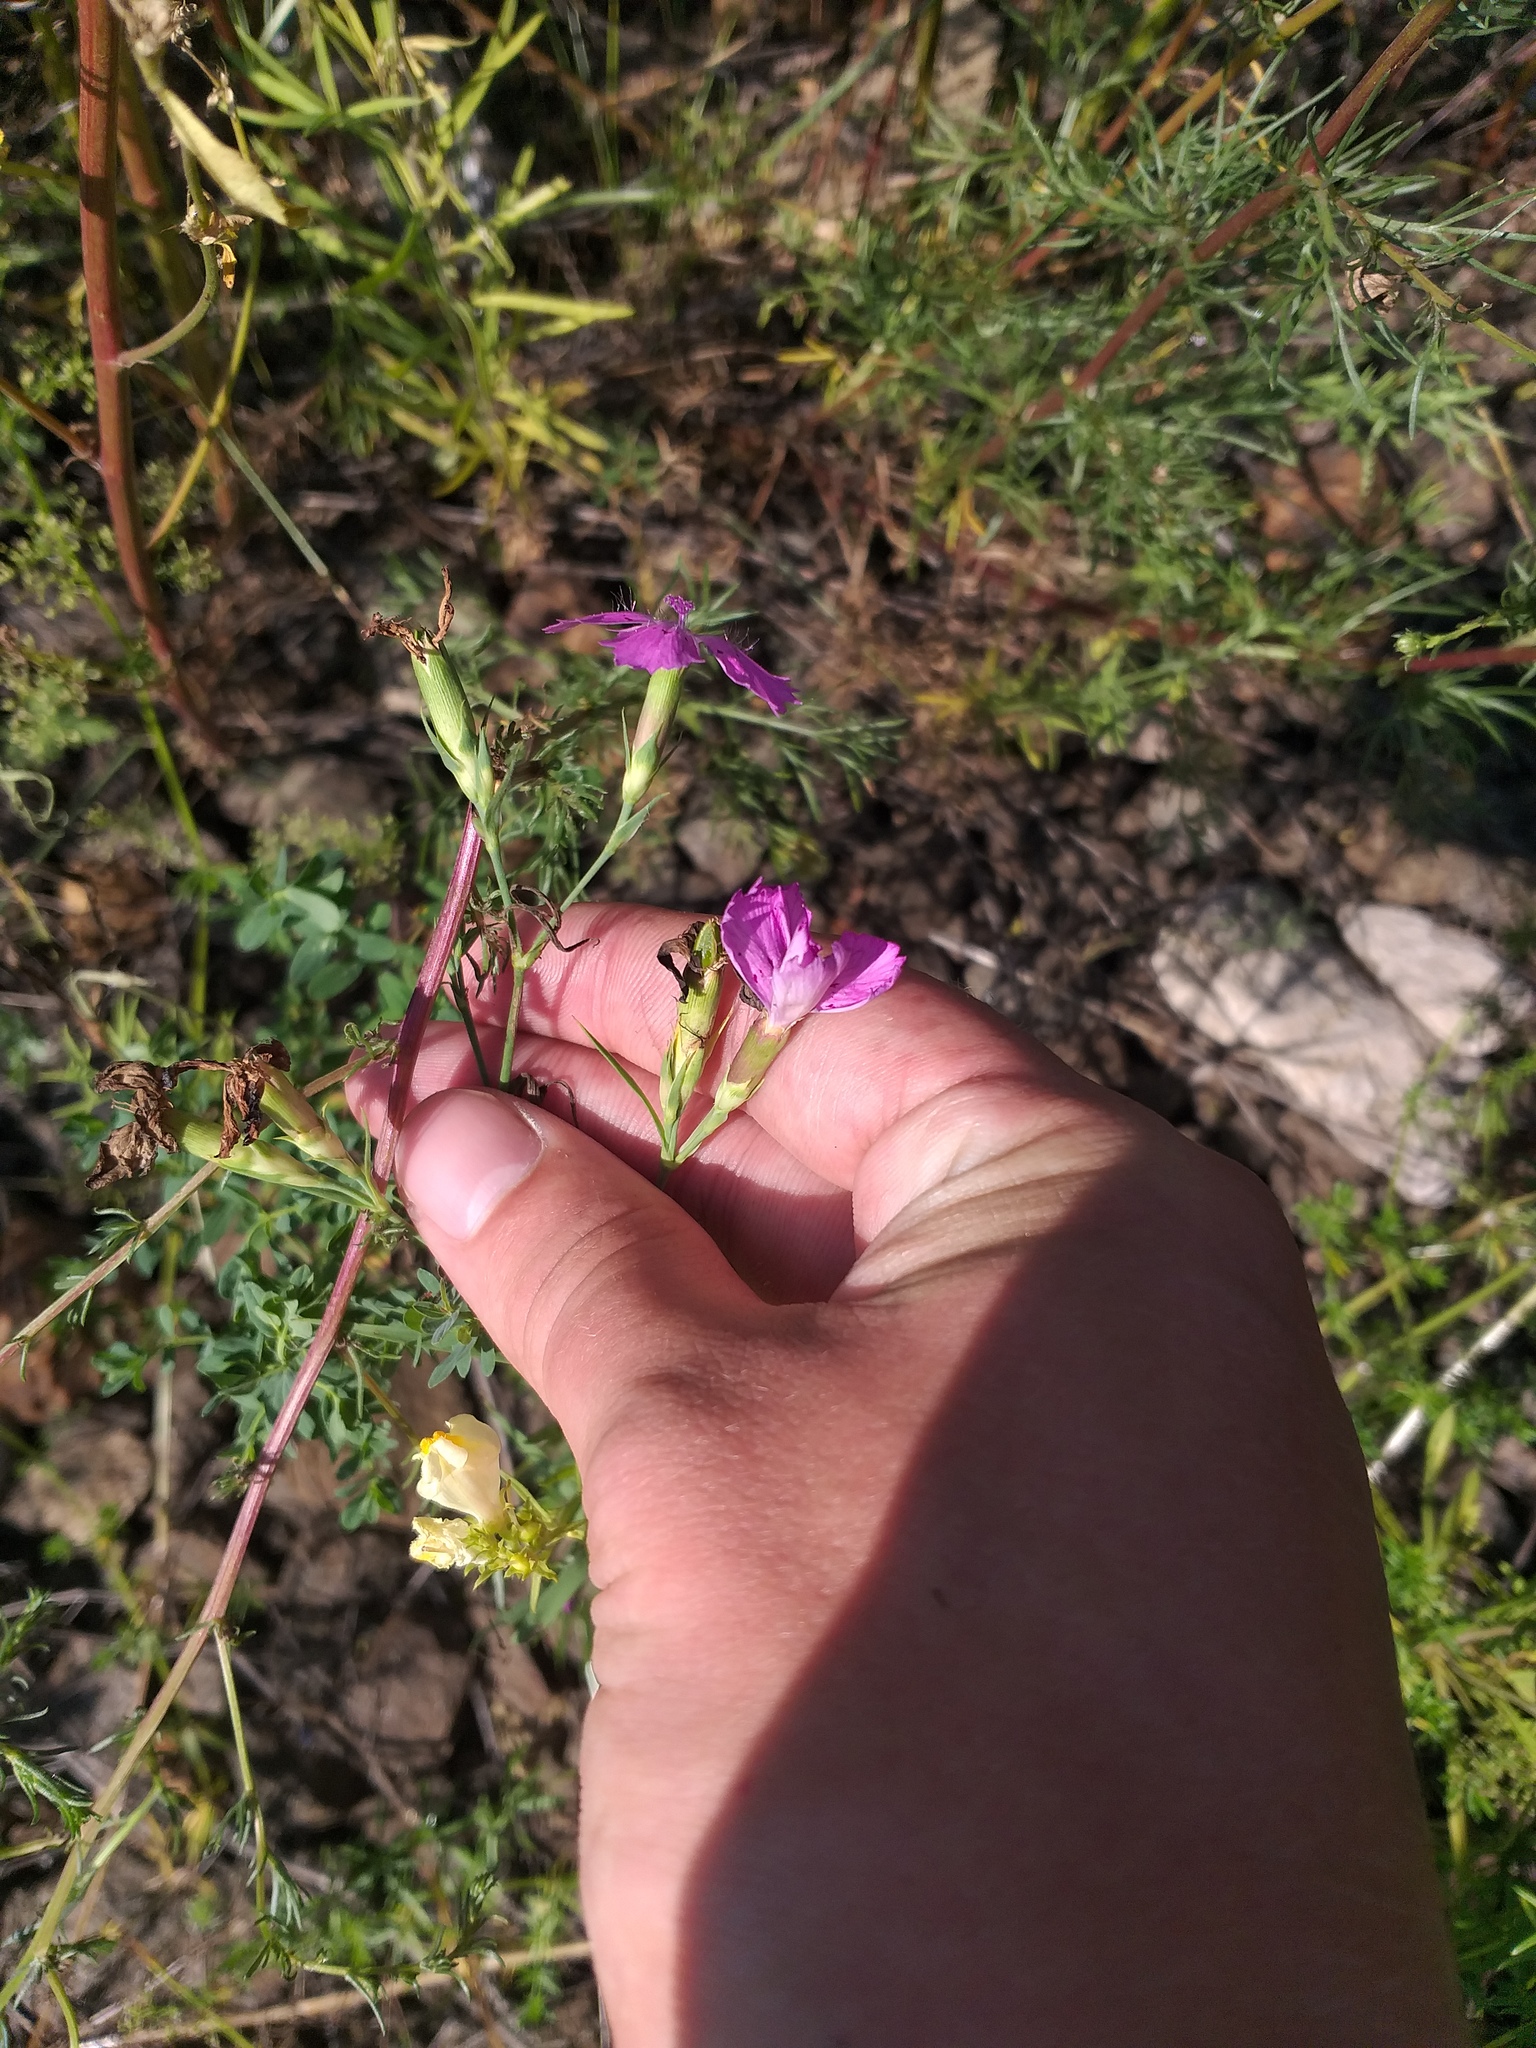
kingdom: Plantae
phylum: Tracheophyta
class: Magnoliopsida
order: Caryophyllales
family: Caryophyllaceae
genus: Dianthus
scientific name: Dianthus chinensis
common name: Rainbow pink
